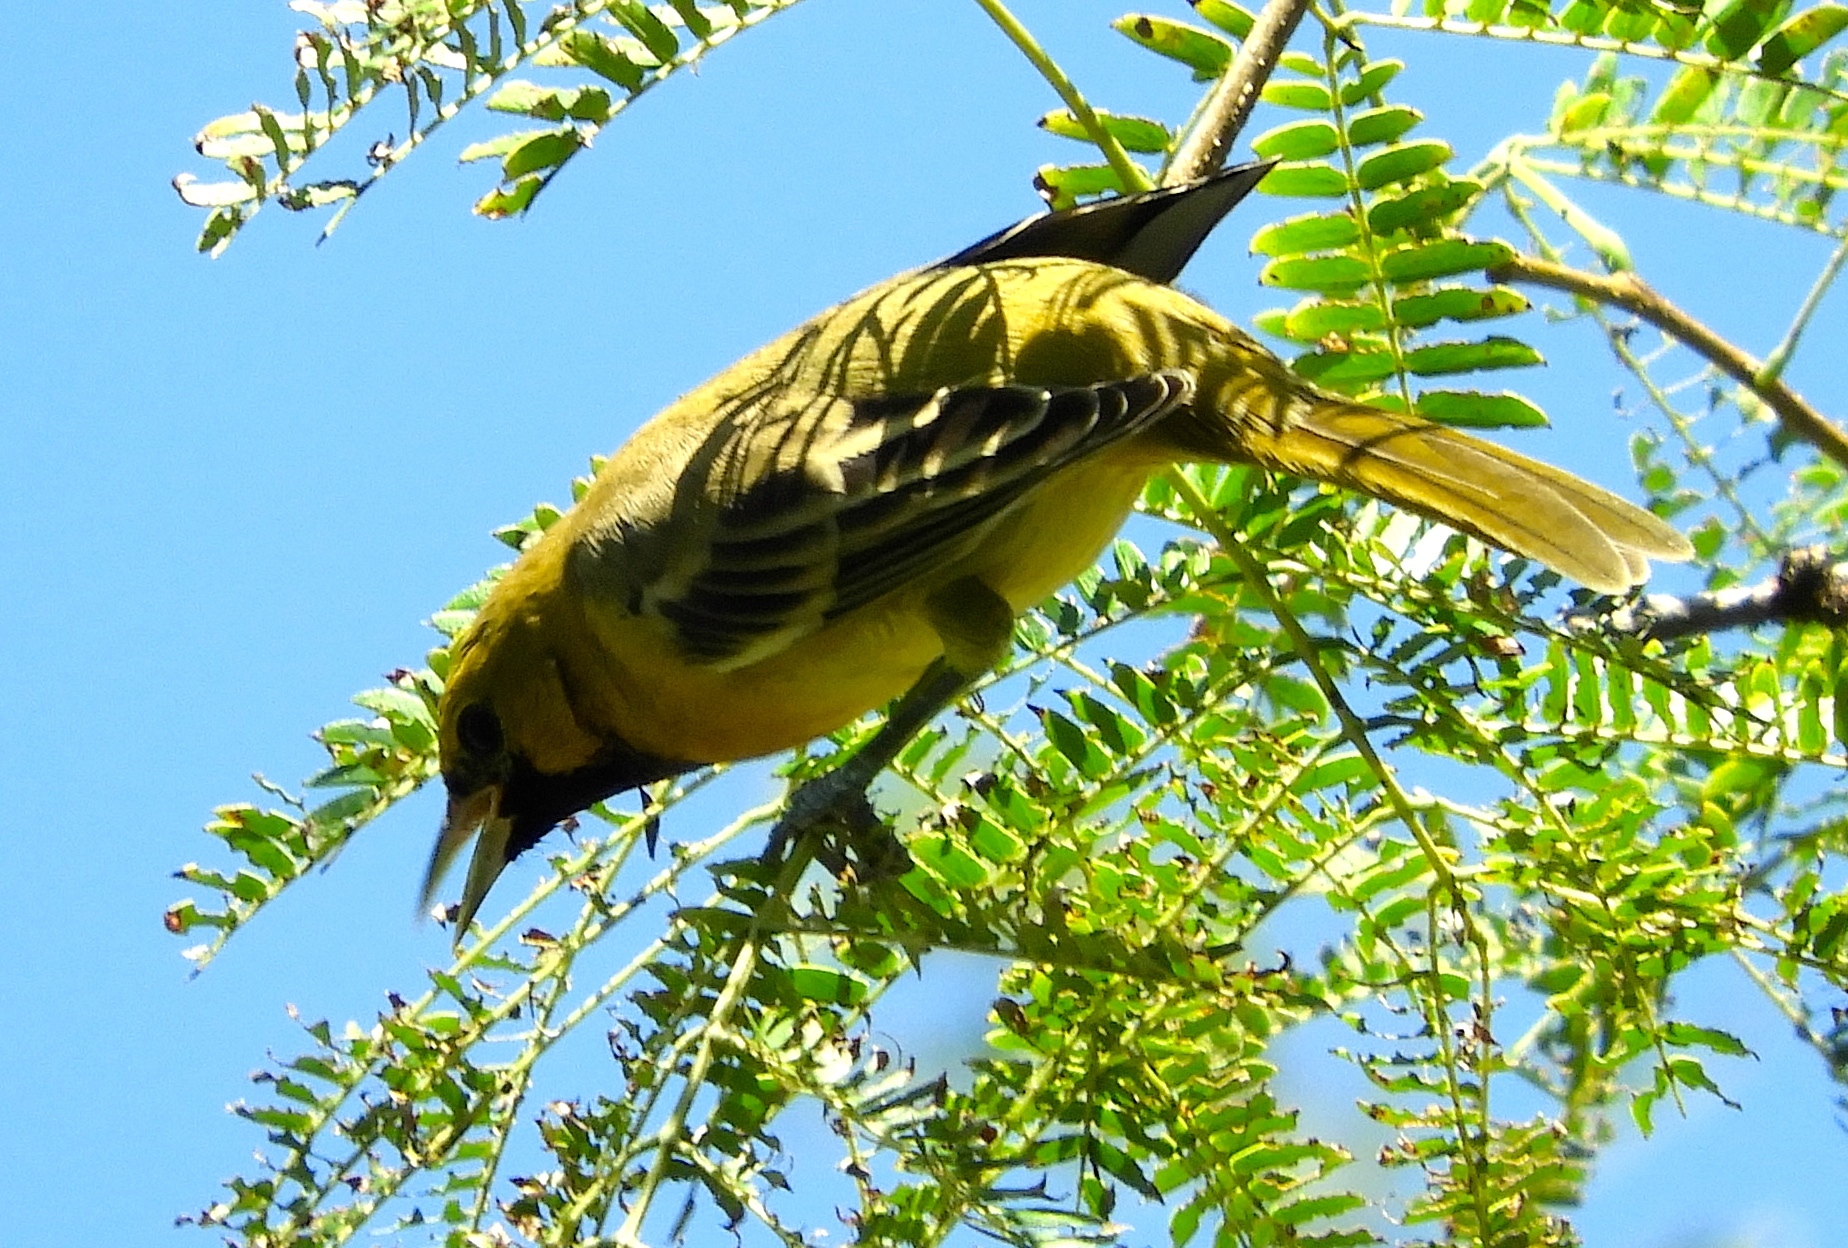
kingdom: Animalia
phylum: Chordata
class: Aves
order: Passeriformes
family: Icteridae
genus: Icterus
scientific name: Icterus pustulatus
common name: Streak-backed oriole
